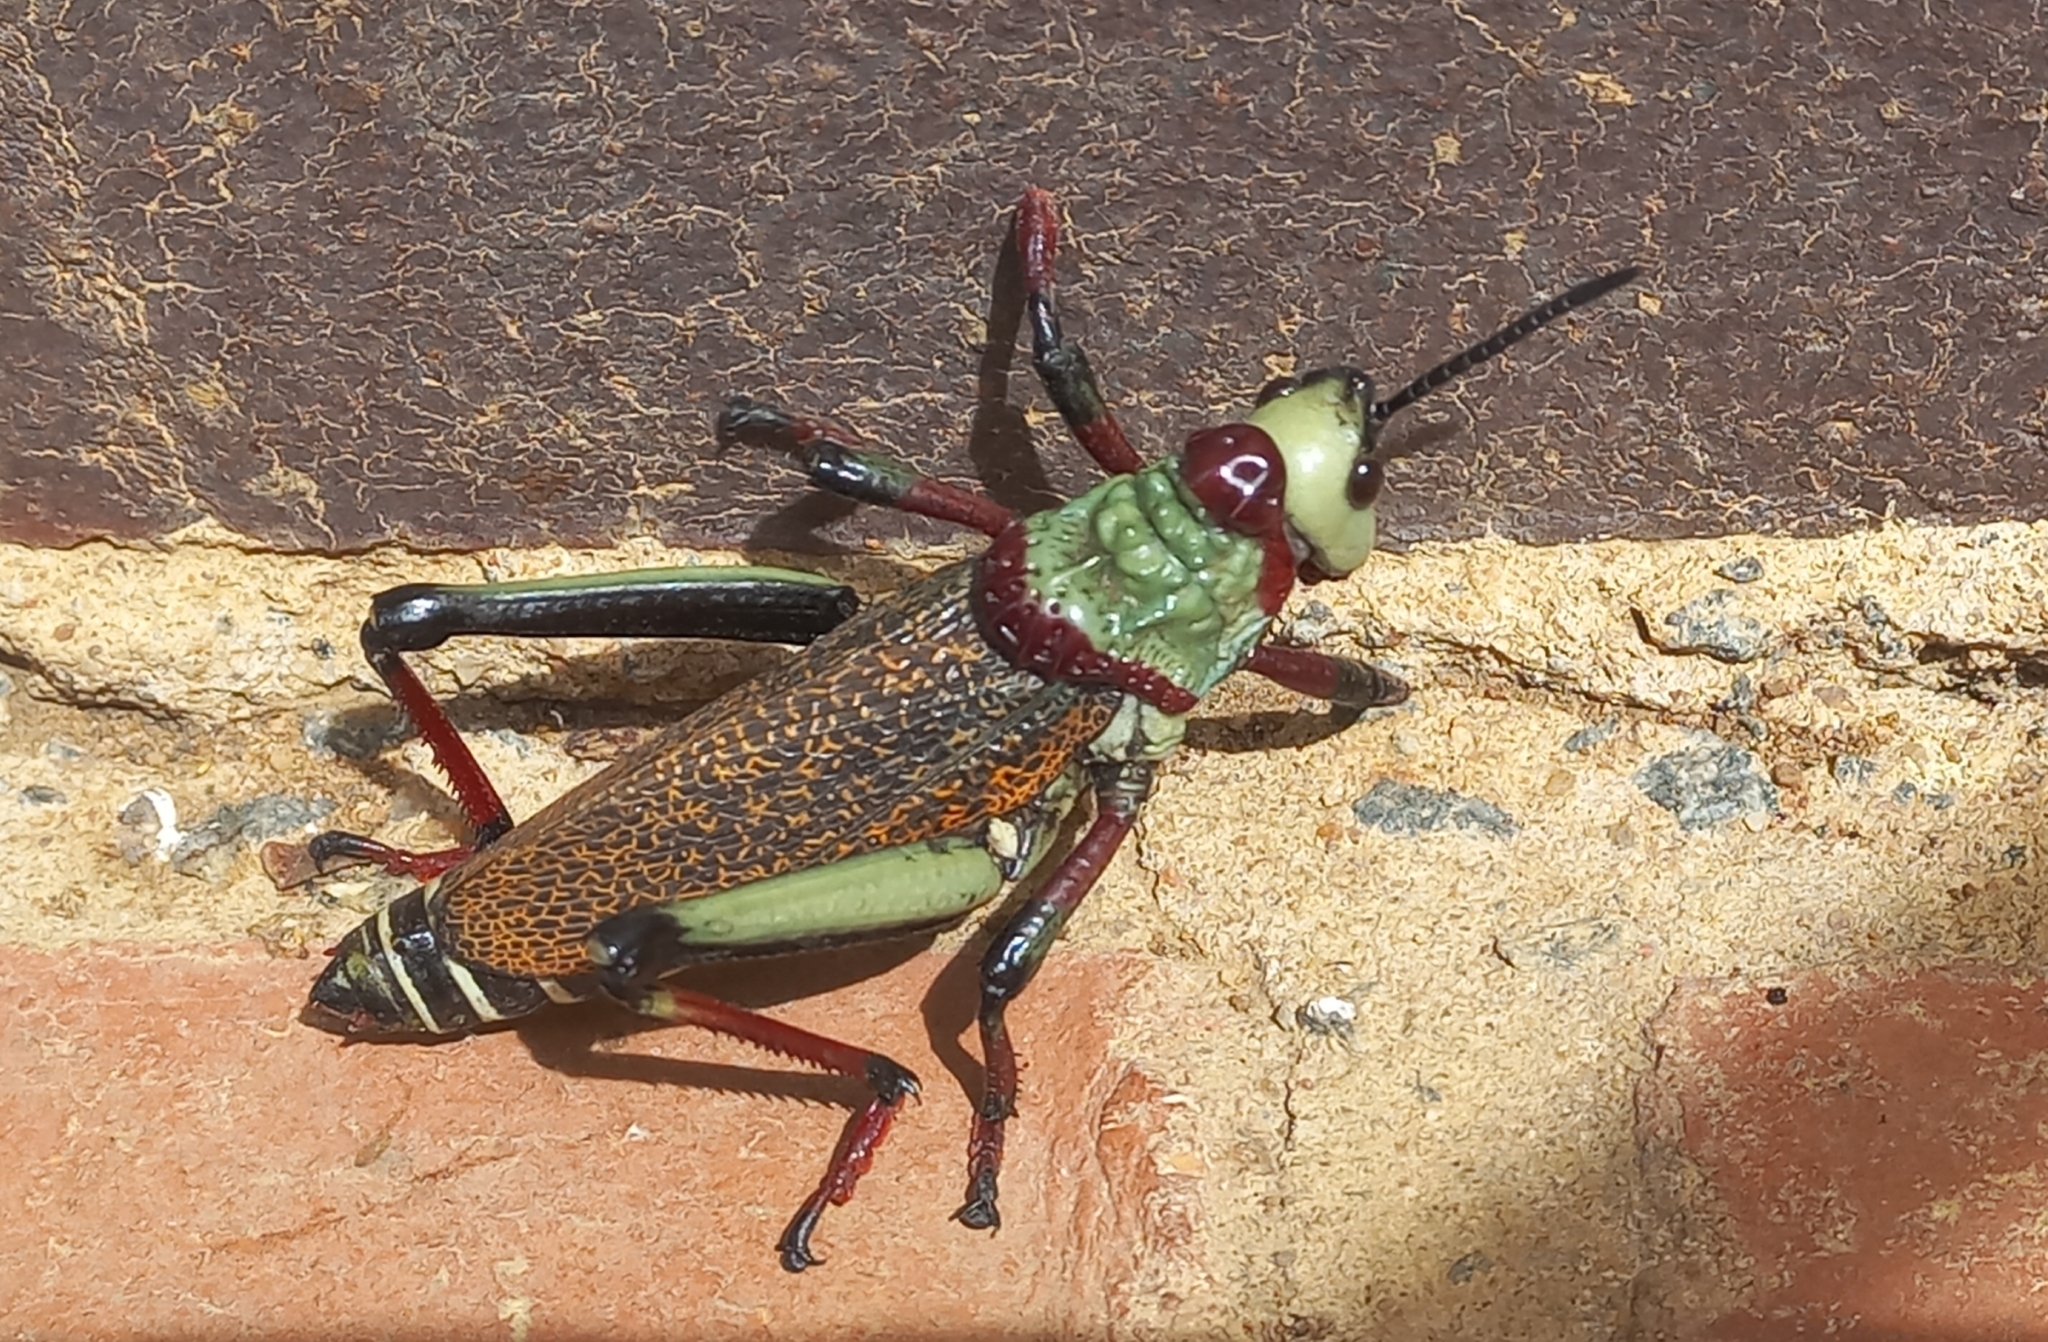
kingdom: Animalia
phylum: Arthropoda
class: Insecta
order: Orthoptera
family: Pyrgomorphidae
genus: Dictyophorus
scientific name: Dictyophorus spumans
